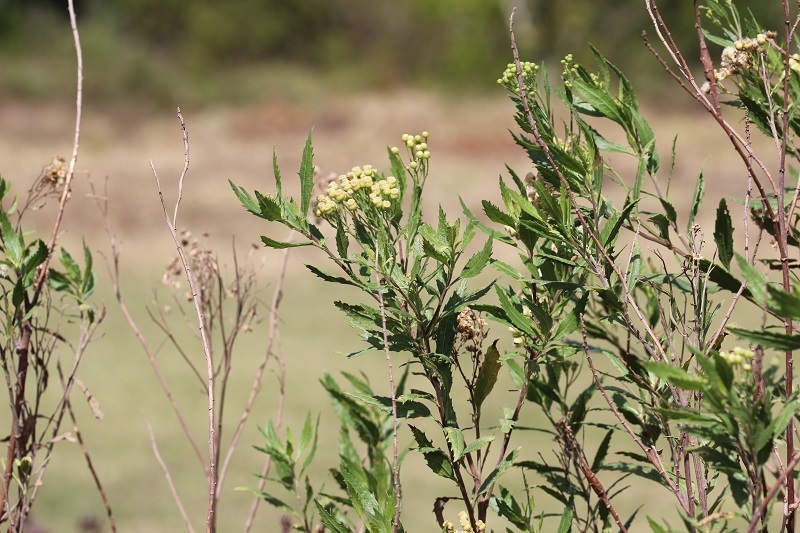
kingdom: Plantae
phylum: Tracheophyta
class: Magnoliopsida
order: Asterales
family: Asteraceae
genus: Nidorella
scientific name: Nidorella ivifolia
